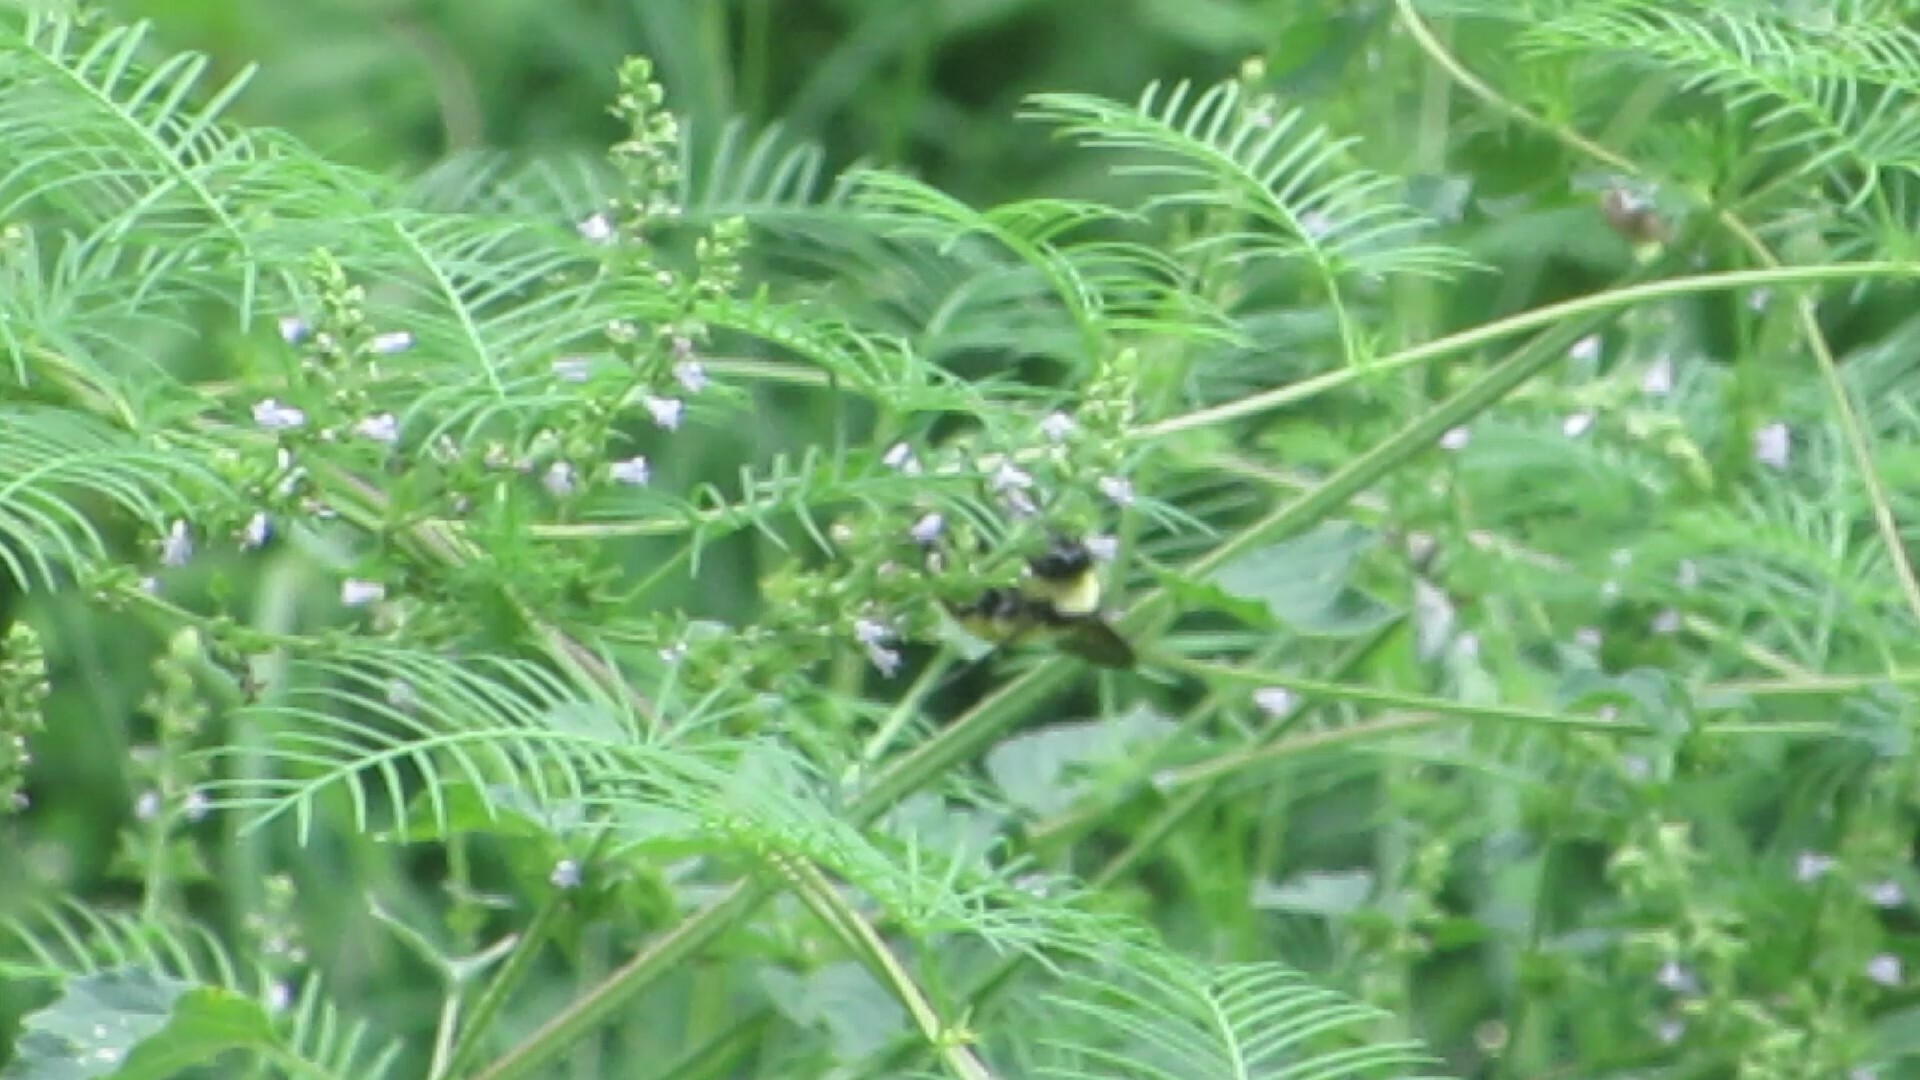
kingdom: Plantae
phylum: Tracheophyta
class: Magnoliopsida
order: Solanales
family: Convolvulaceae
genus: Ipomoea
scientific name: Ipomoea quamoclit
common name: Cypress vine
